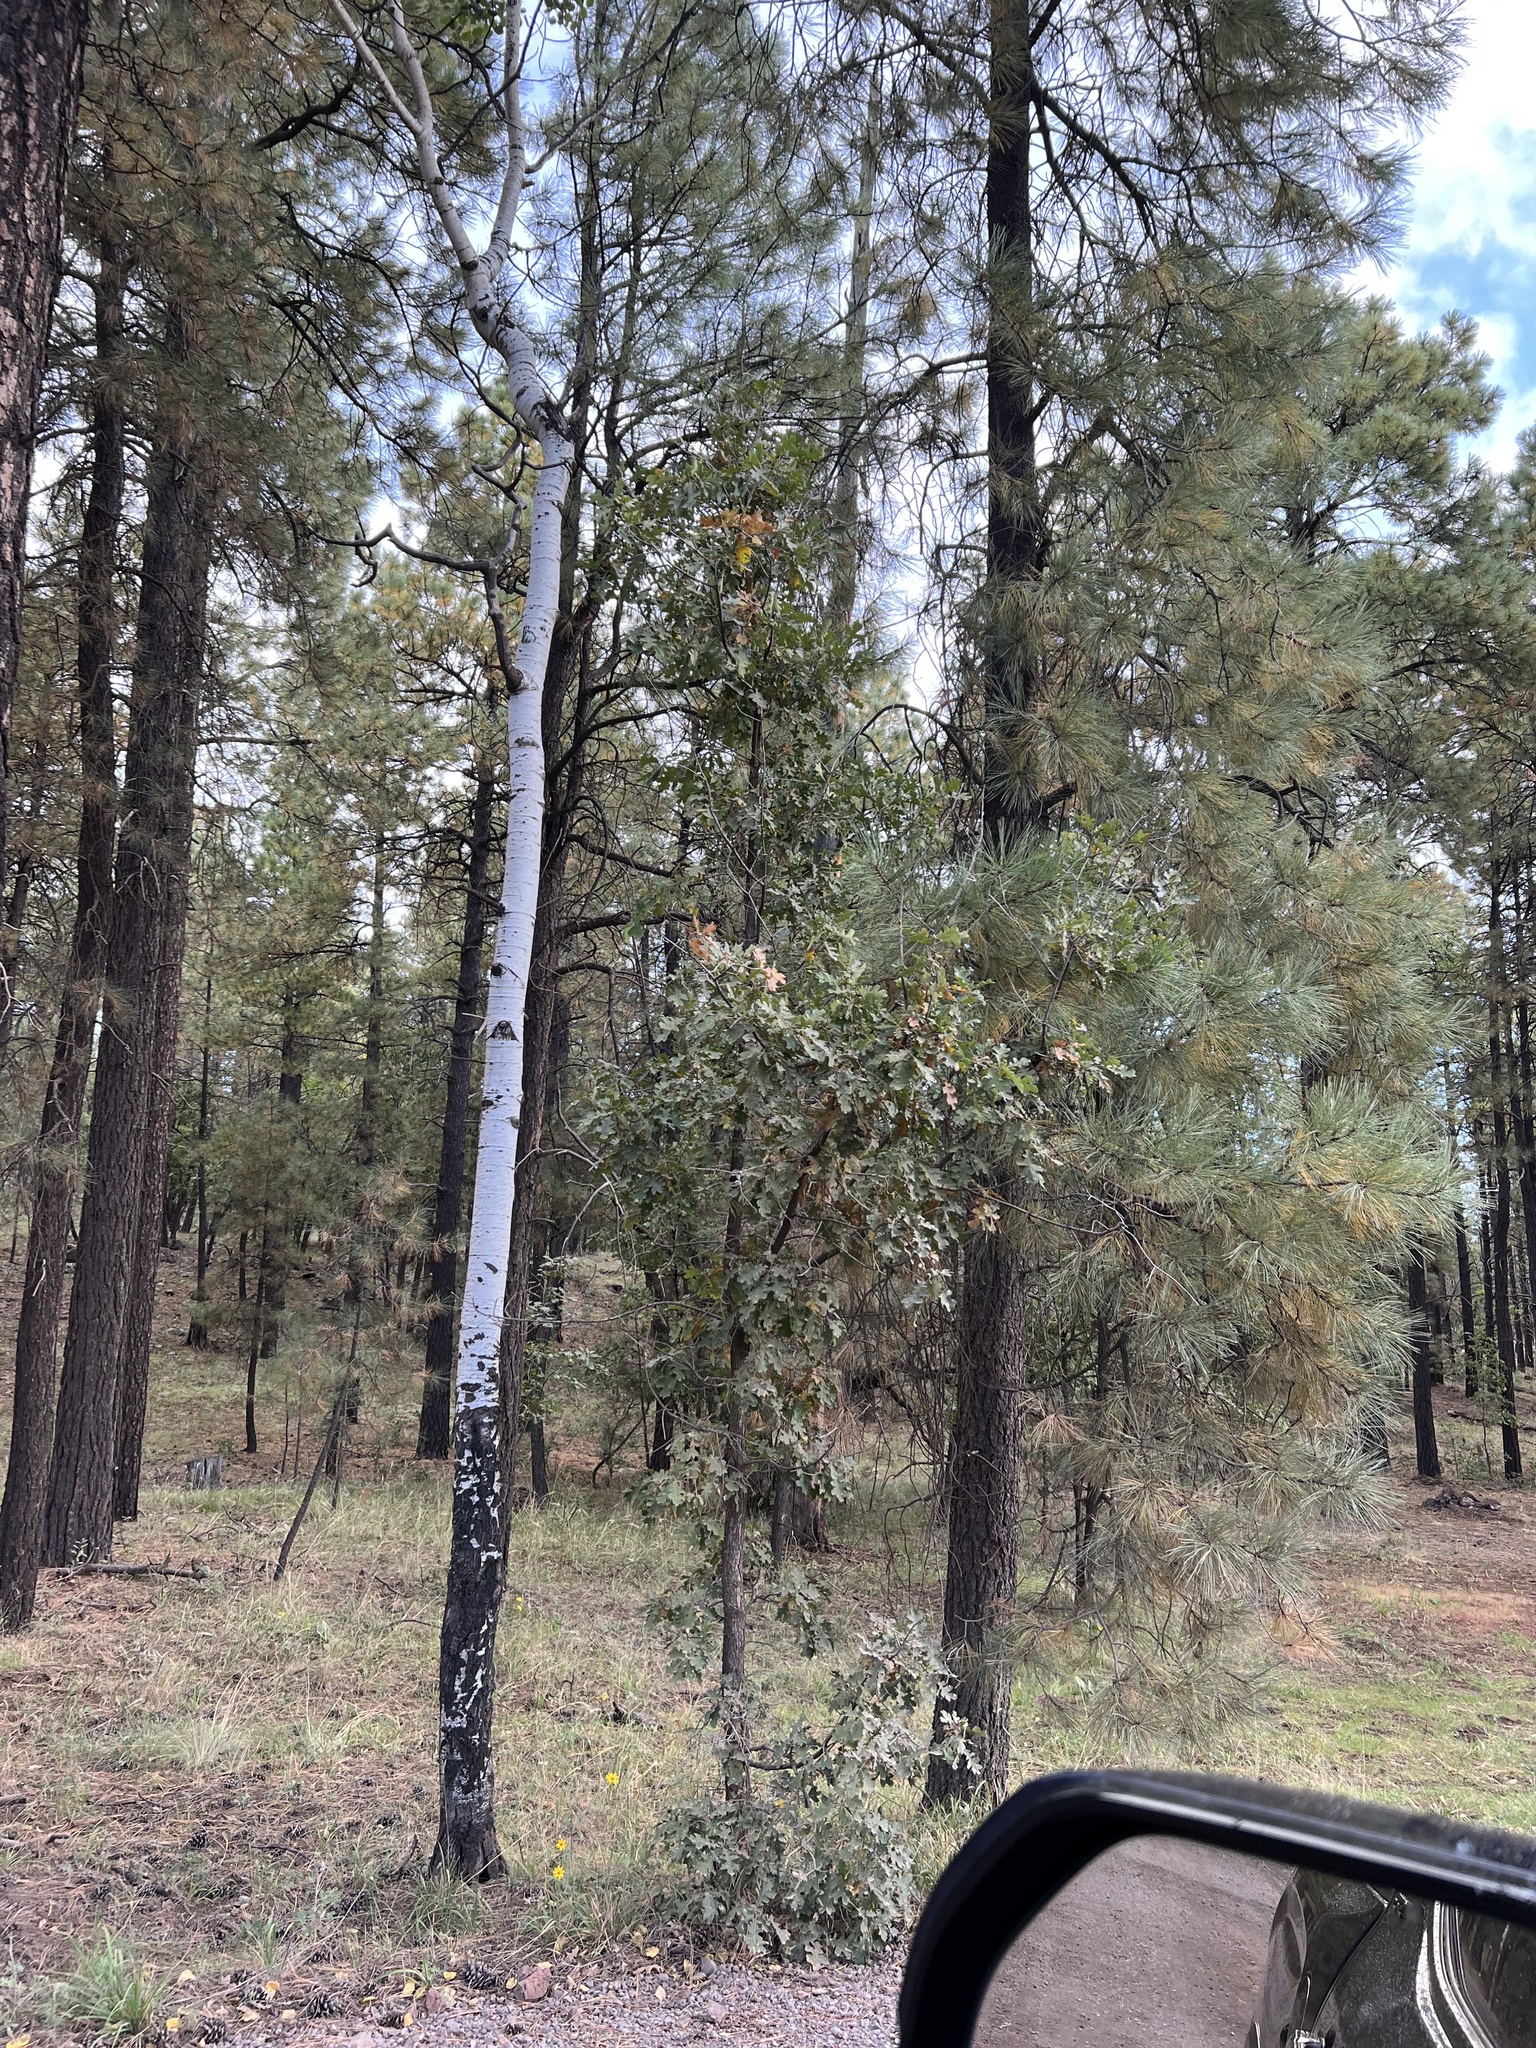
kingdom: Plantae
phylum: Tracheophyta
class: Magnoliopsida
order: Fagales
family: Fagaceae
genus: Quercus
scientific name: Quercus gambelii
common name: Gambel oak
